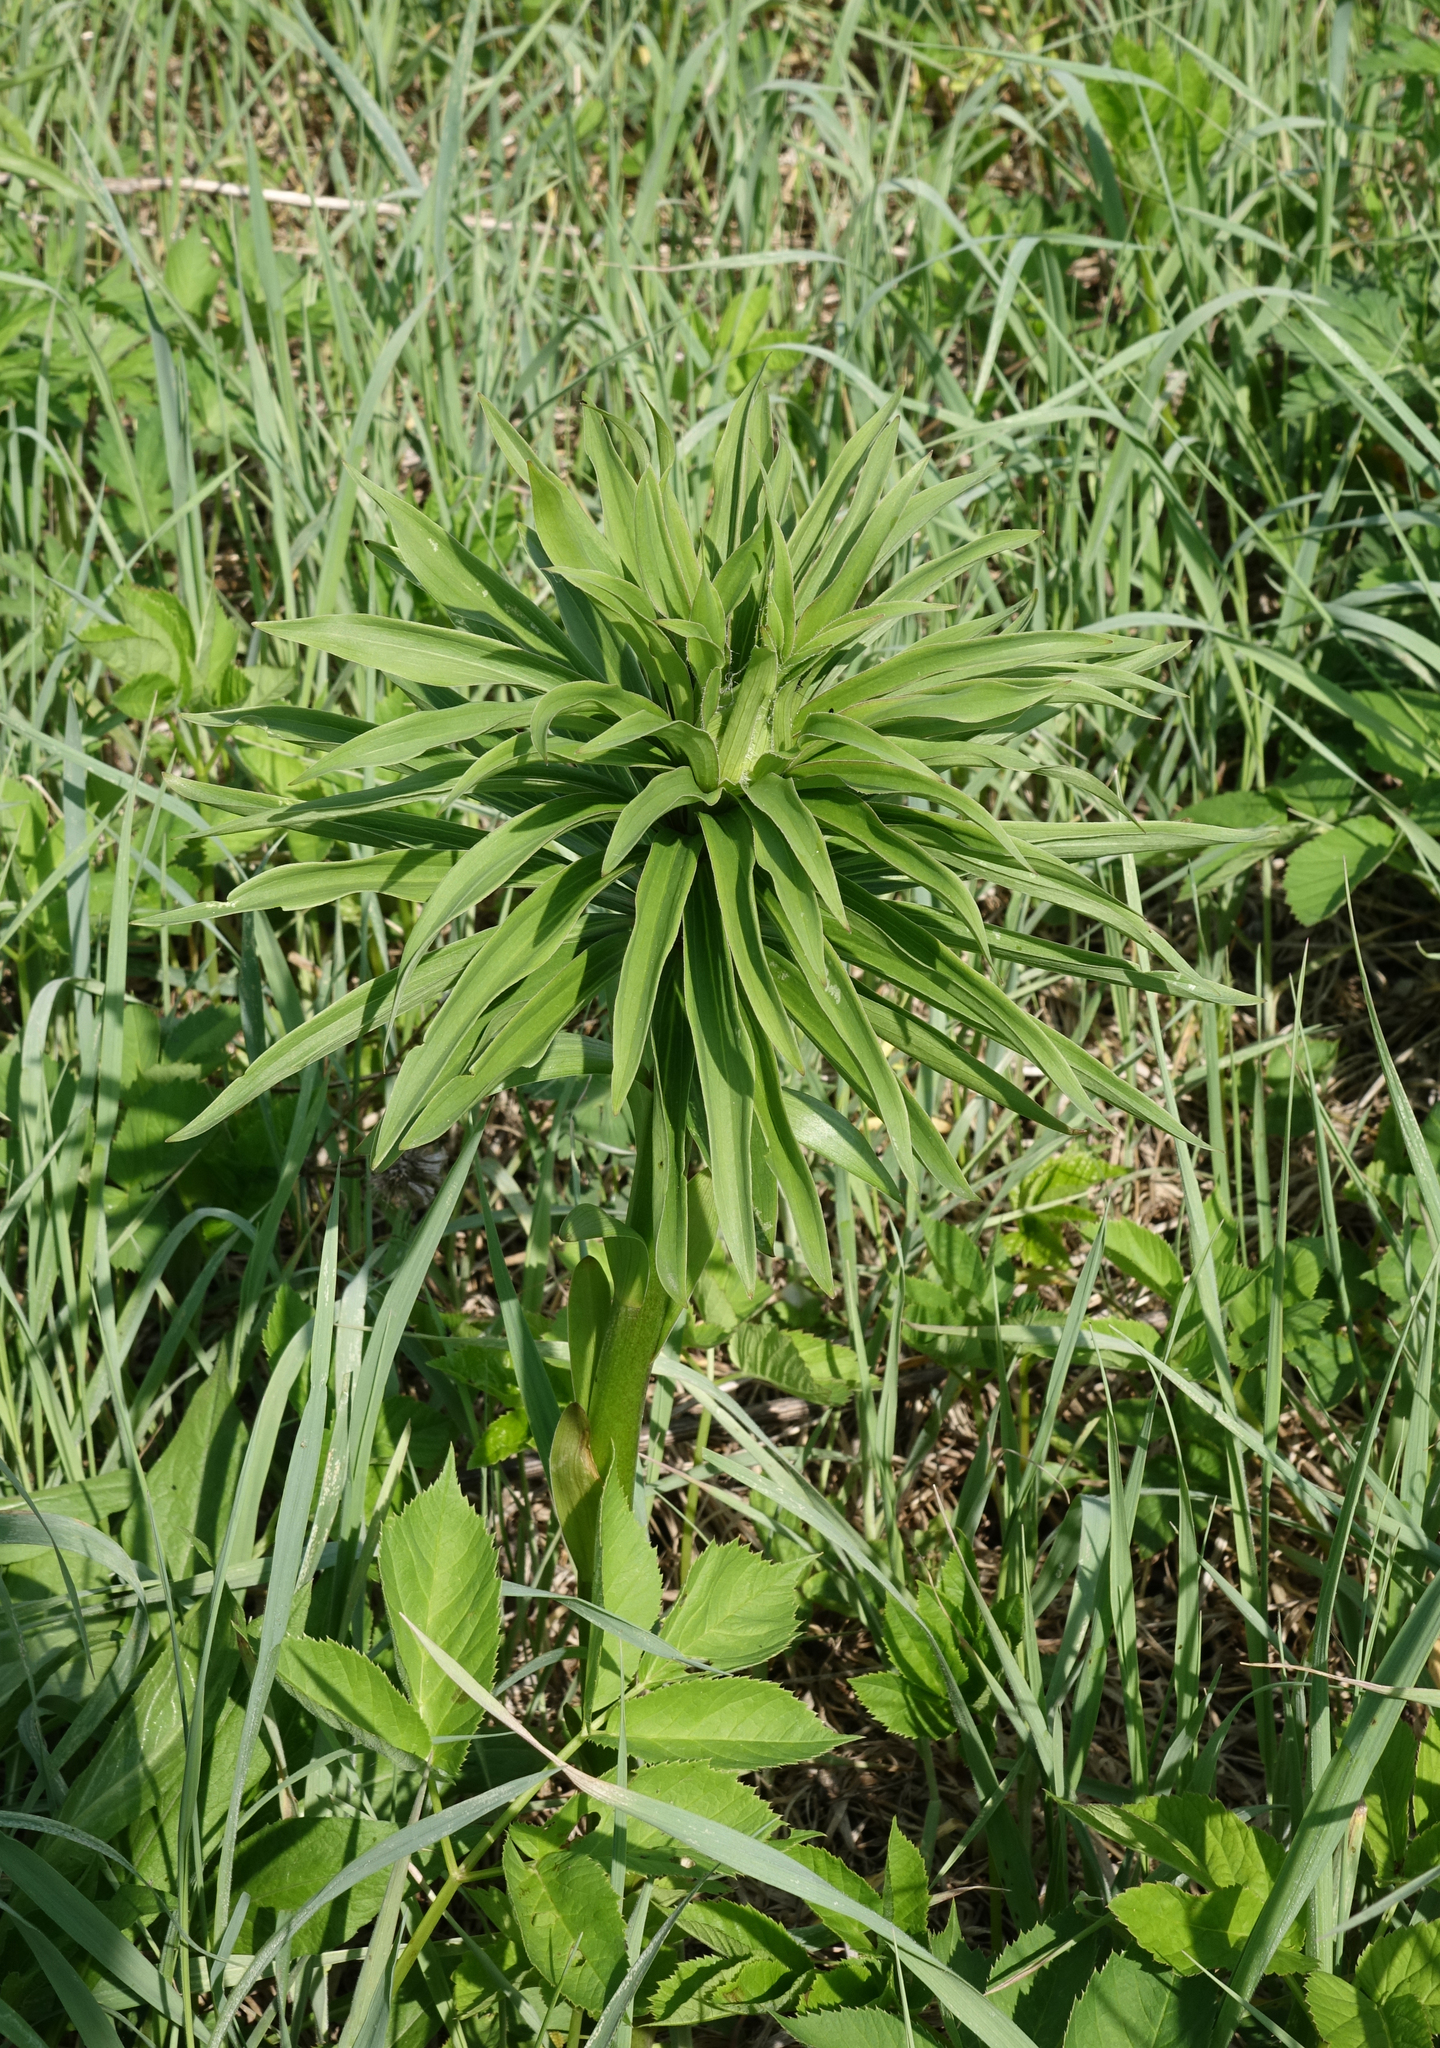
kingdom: Plantae
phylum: Tracheophyta
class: Liliopsida
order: Liliales
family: Liliaceae
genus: Lilium
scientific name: Lilium martagon
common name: Martagon lily
